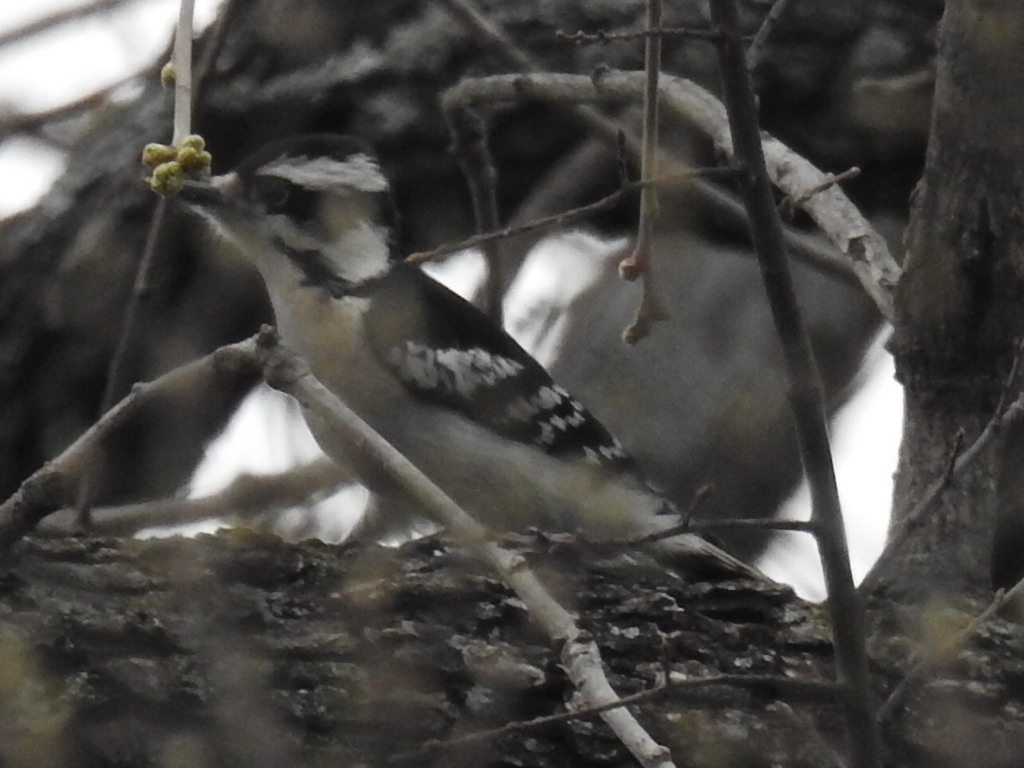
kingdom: Animalia
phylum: Chordata
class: Aves
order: Piciformes
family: Picidae
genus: Dryobates
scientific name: Dryobates pubescens
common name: Downy woodpecker
